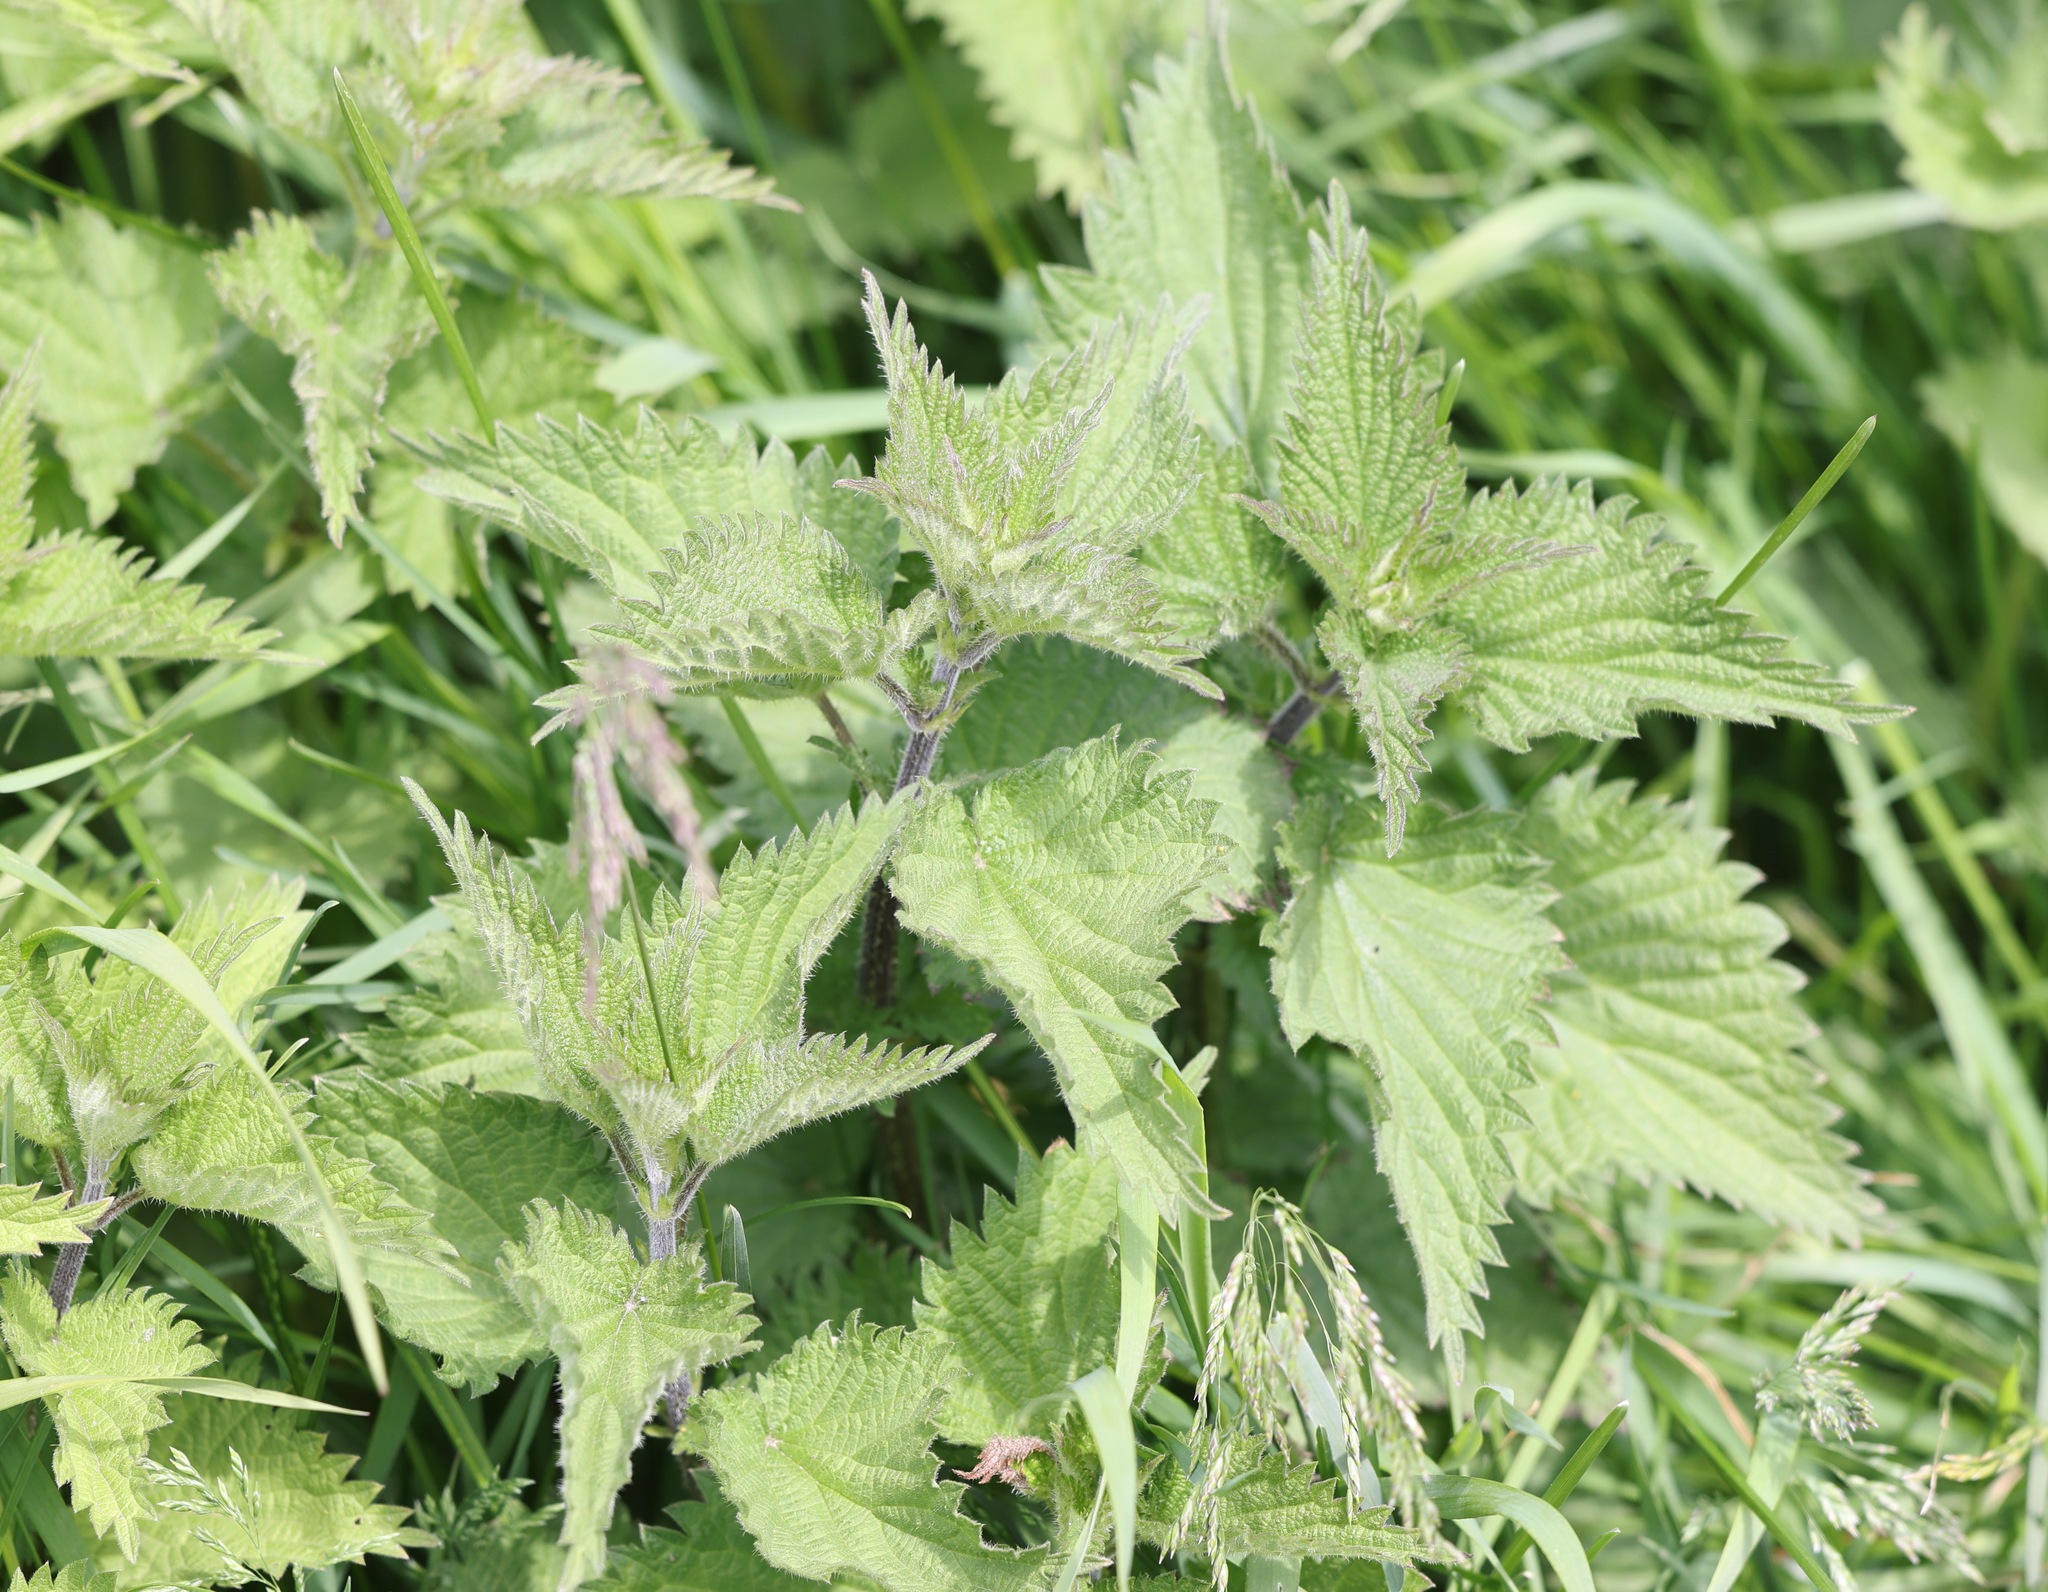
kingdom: Plantae
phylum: Tracheophyta
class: Magnoliopsida
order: Rosales
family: Urticaceae
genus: Urtica
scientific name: Urtica dioica
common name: Common nettle
